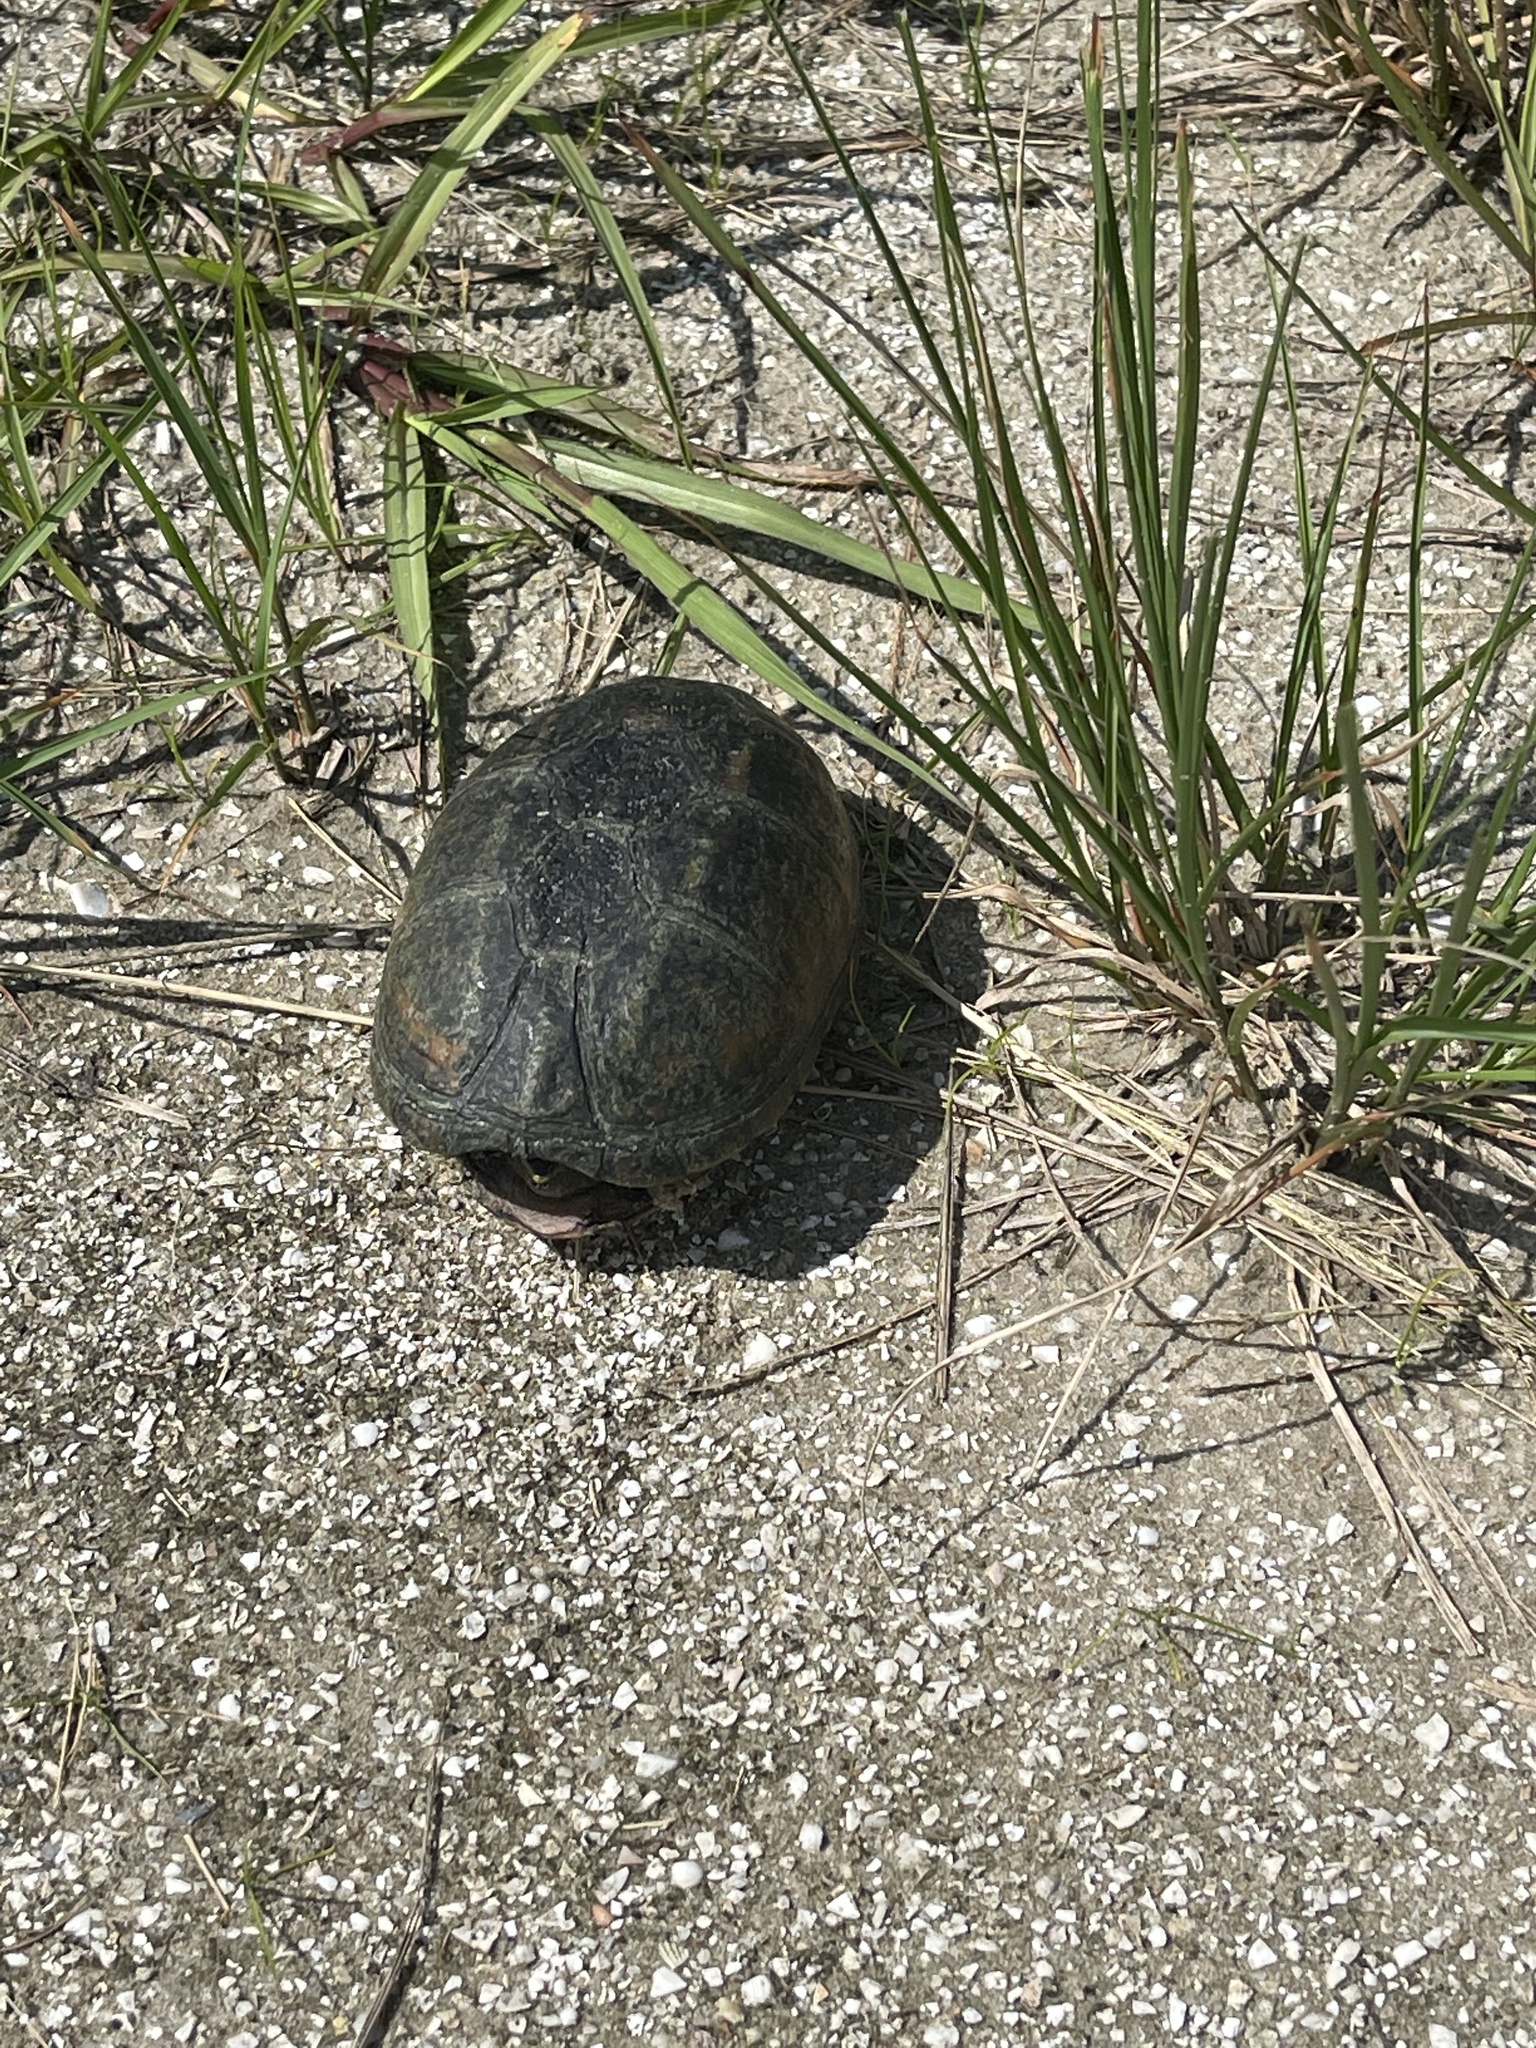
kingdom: Animalia
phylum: Chordata
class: Testudines
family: Kinosternidae
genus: Kinosternon
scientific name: Kinosternon baurii
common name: Striped mud turtle
